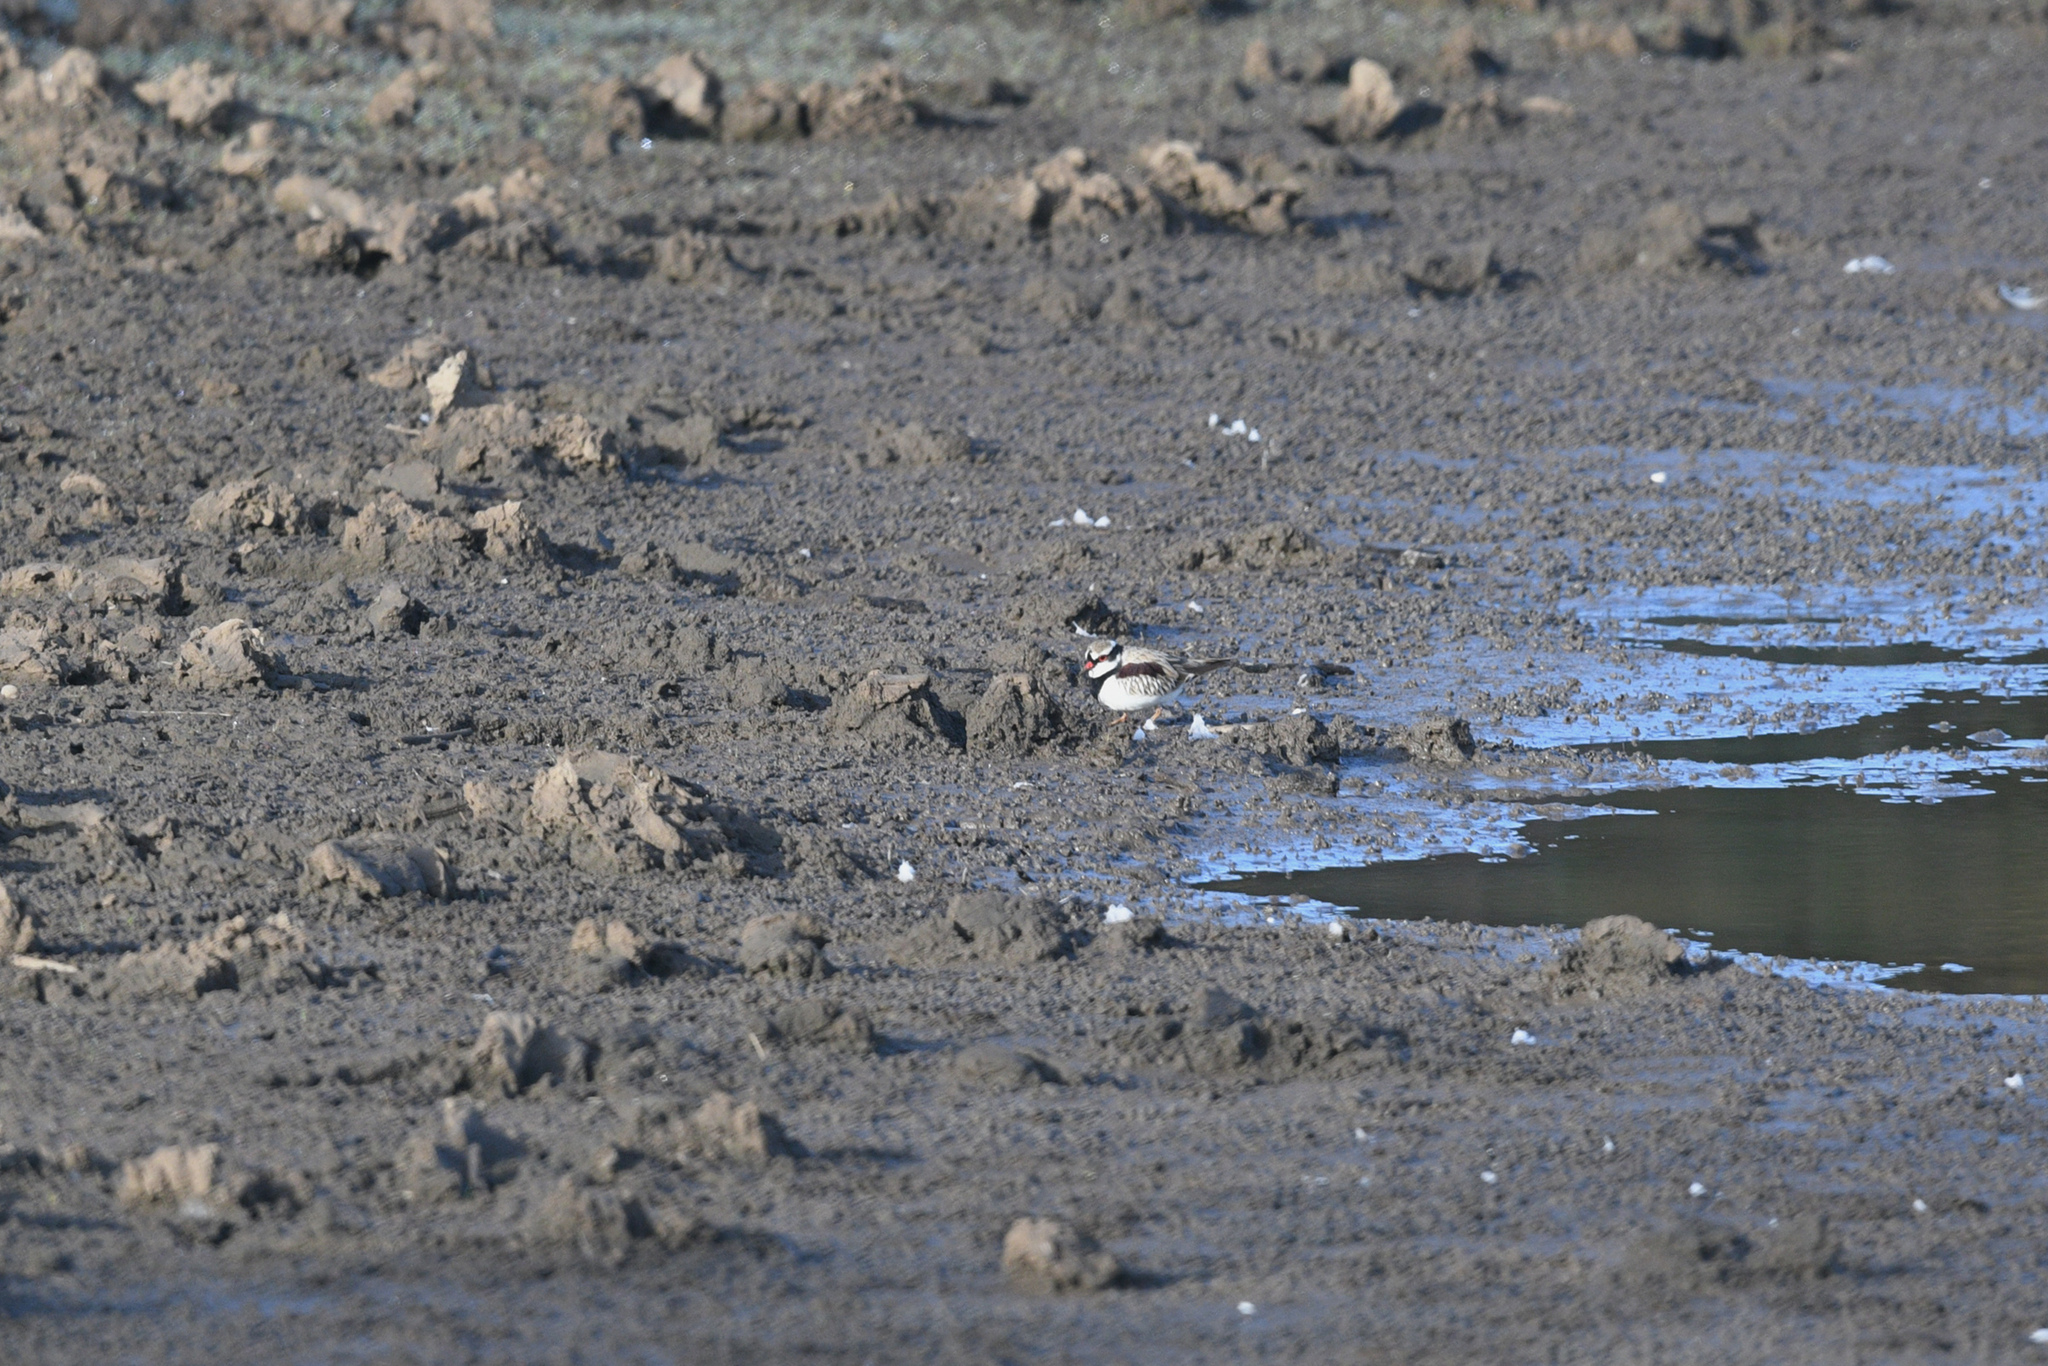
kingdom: Animalia
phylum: Chordata
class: Aves
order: Charadriiformes
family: Charadriidae
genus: Elseyornis
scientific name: Elseyornis melanops
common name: Black-fronted dotterel
